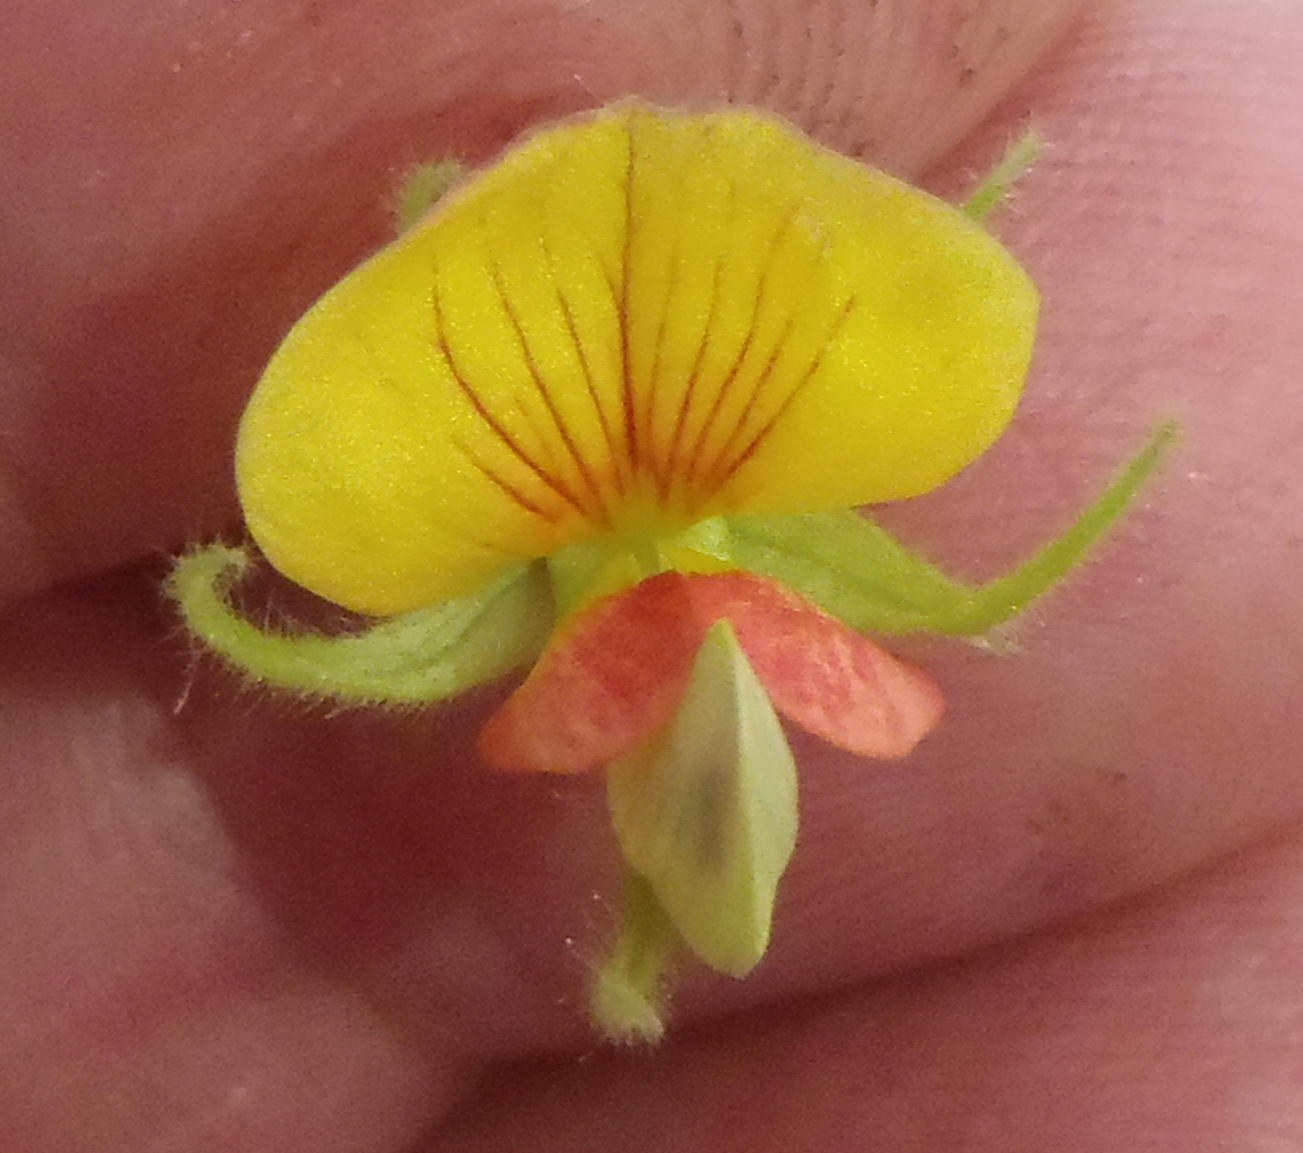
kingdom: Plantae
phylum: Tracheophyta
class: Magnoliopsida
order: Fabales
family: Fabaceae
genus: Rhynchosia
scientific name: Rhynchosia monophylla
